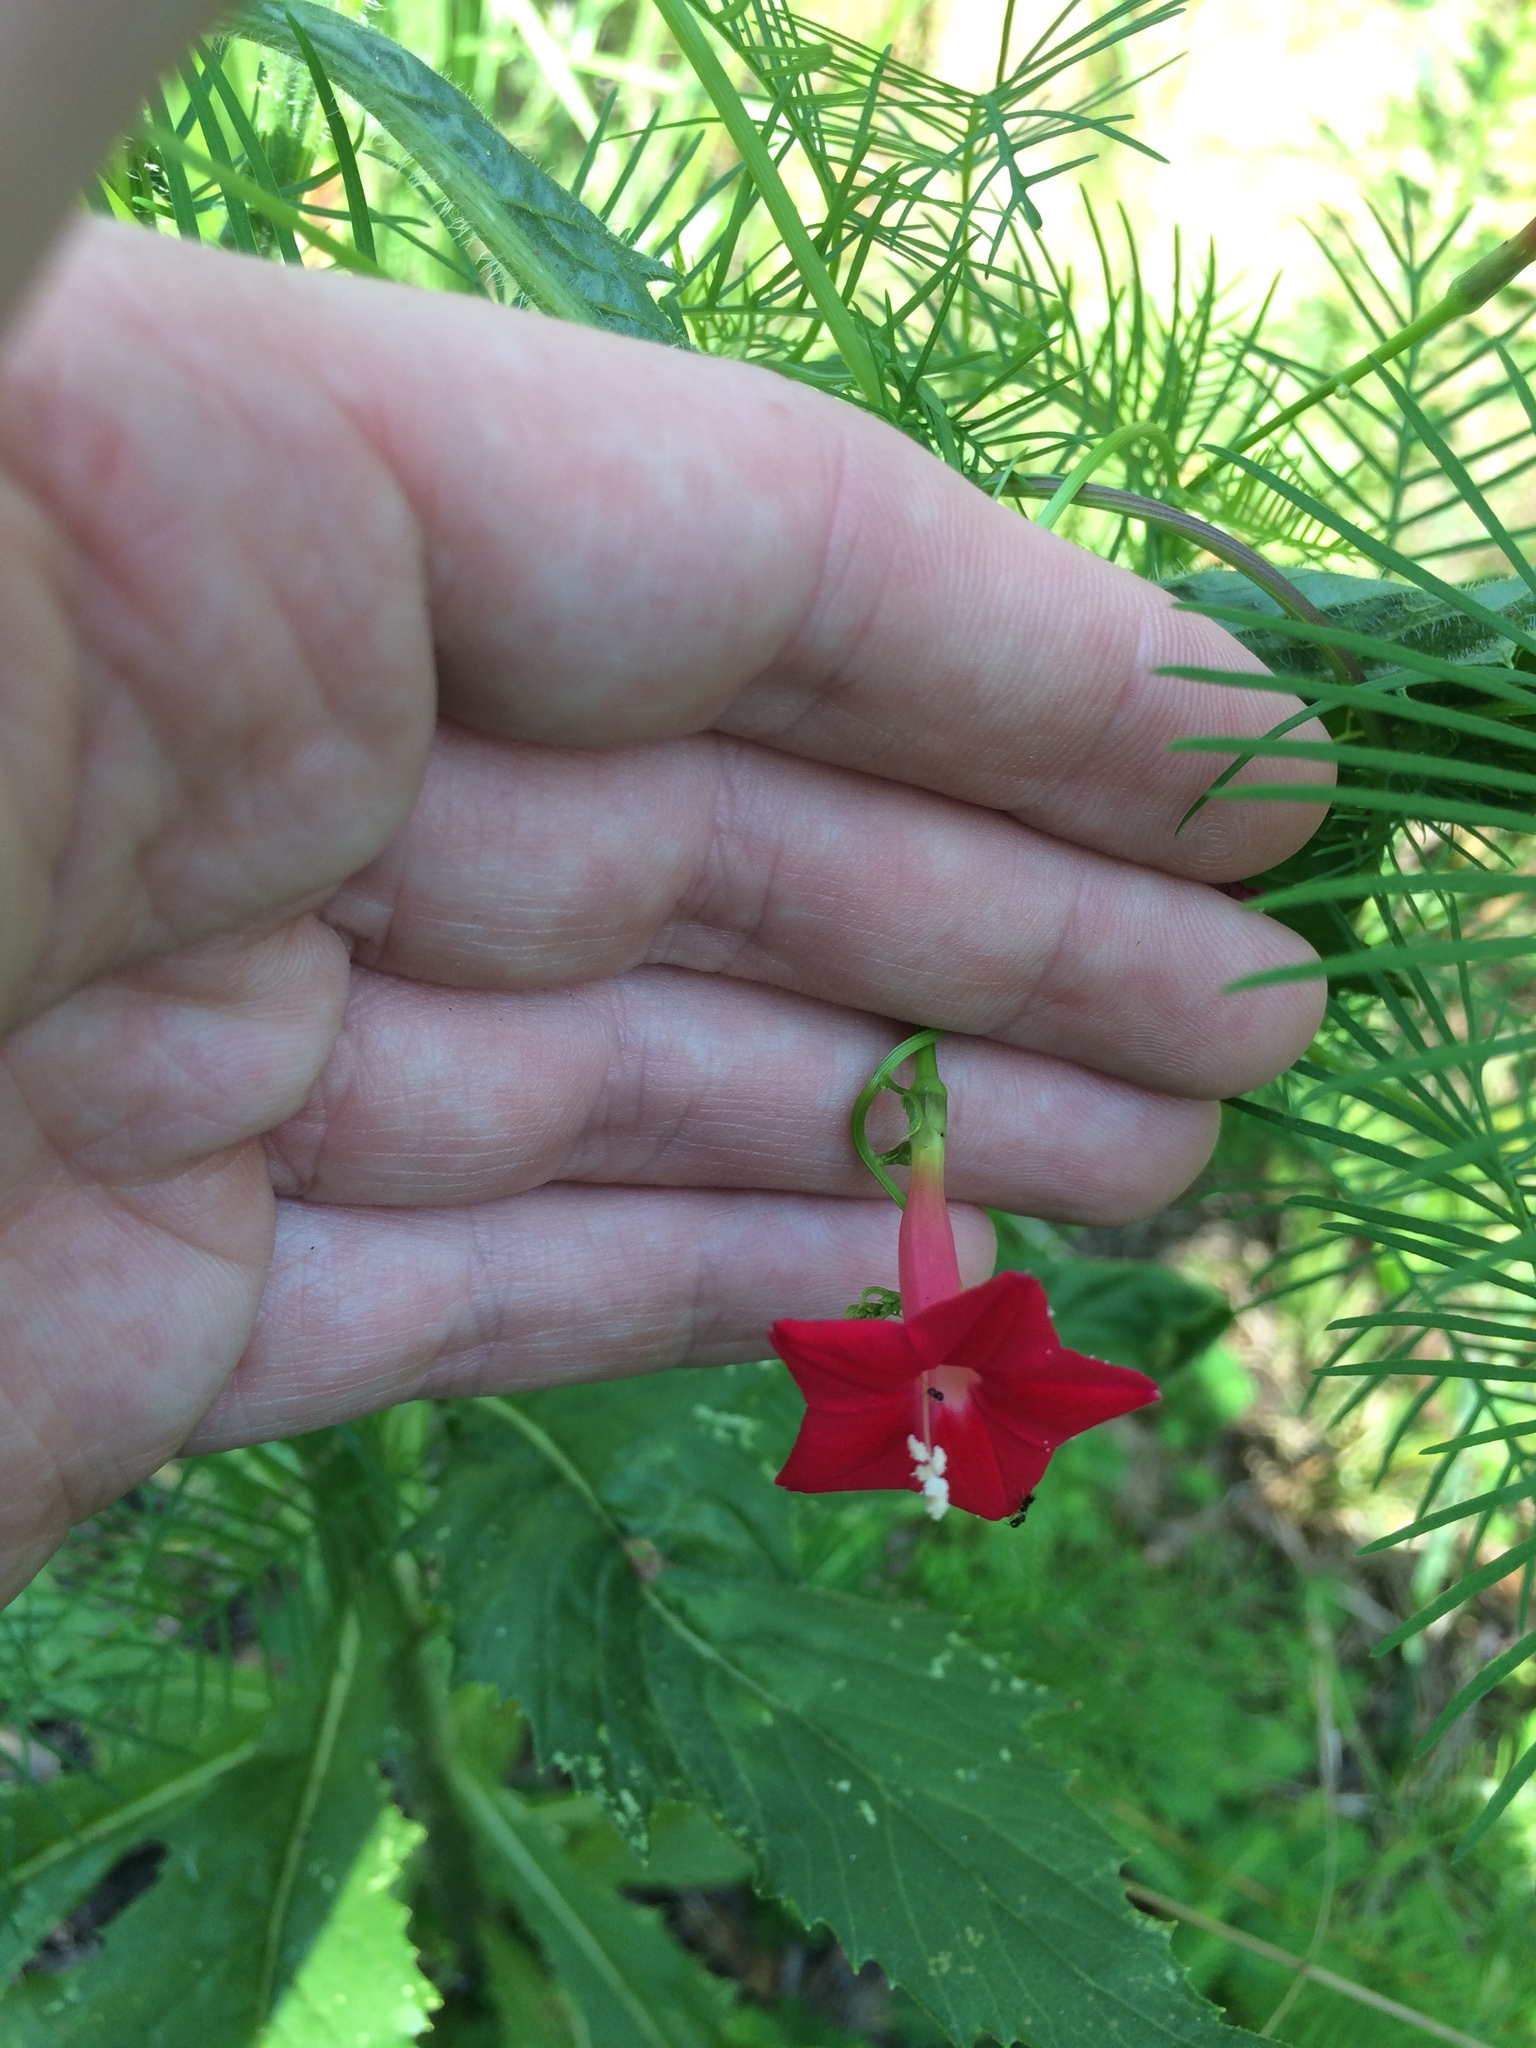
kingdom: Plantae
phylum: Tracheophyta
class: Magnoliopsida
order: Solanales
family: Convolvulaceae
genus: Ipomoea
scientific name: Ipomoea quamoclit
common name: Cypress vine
